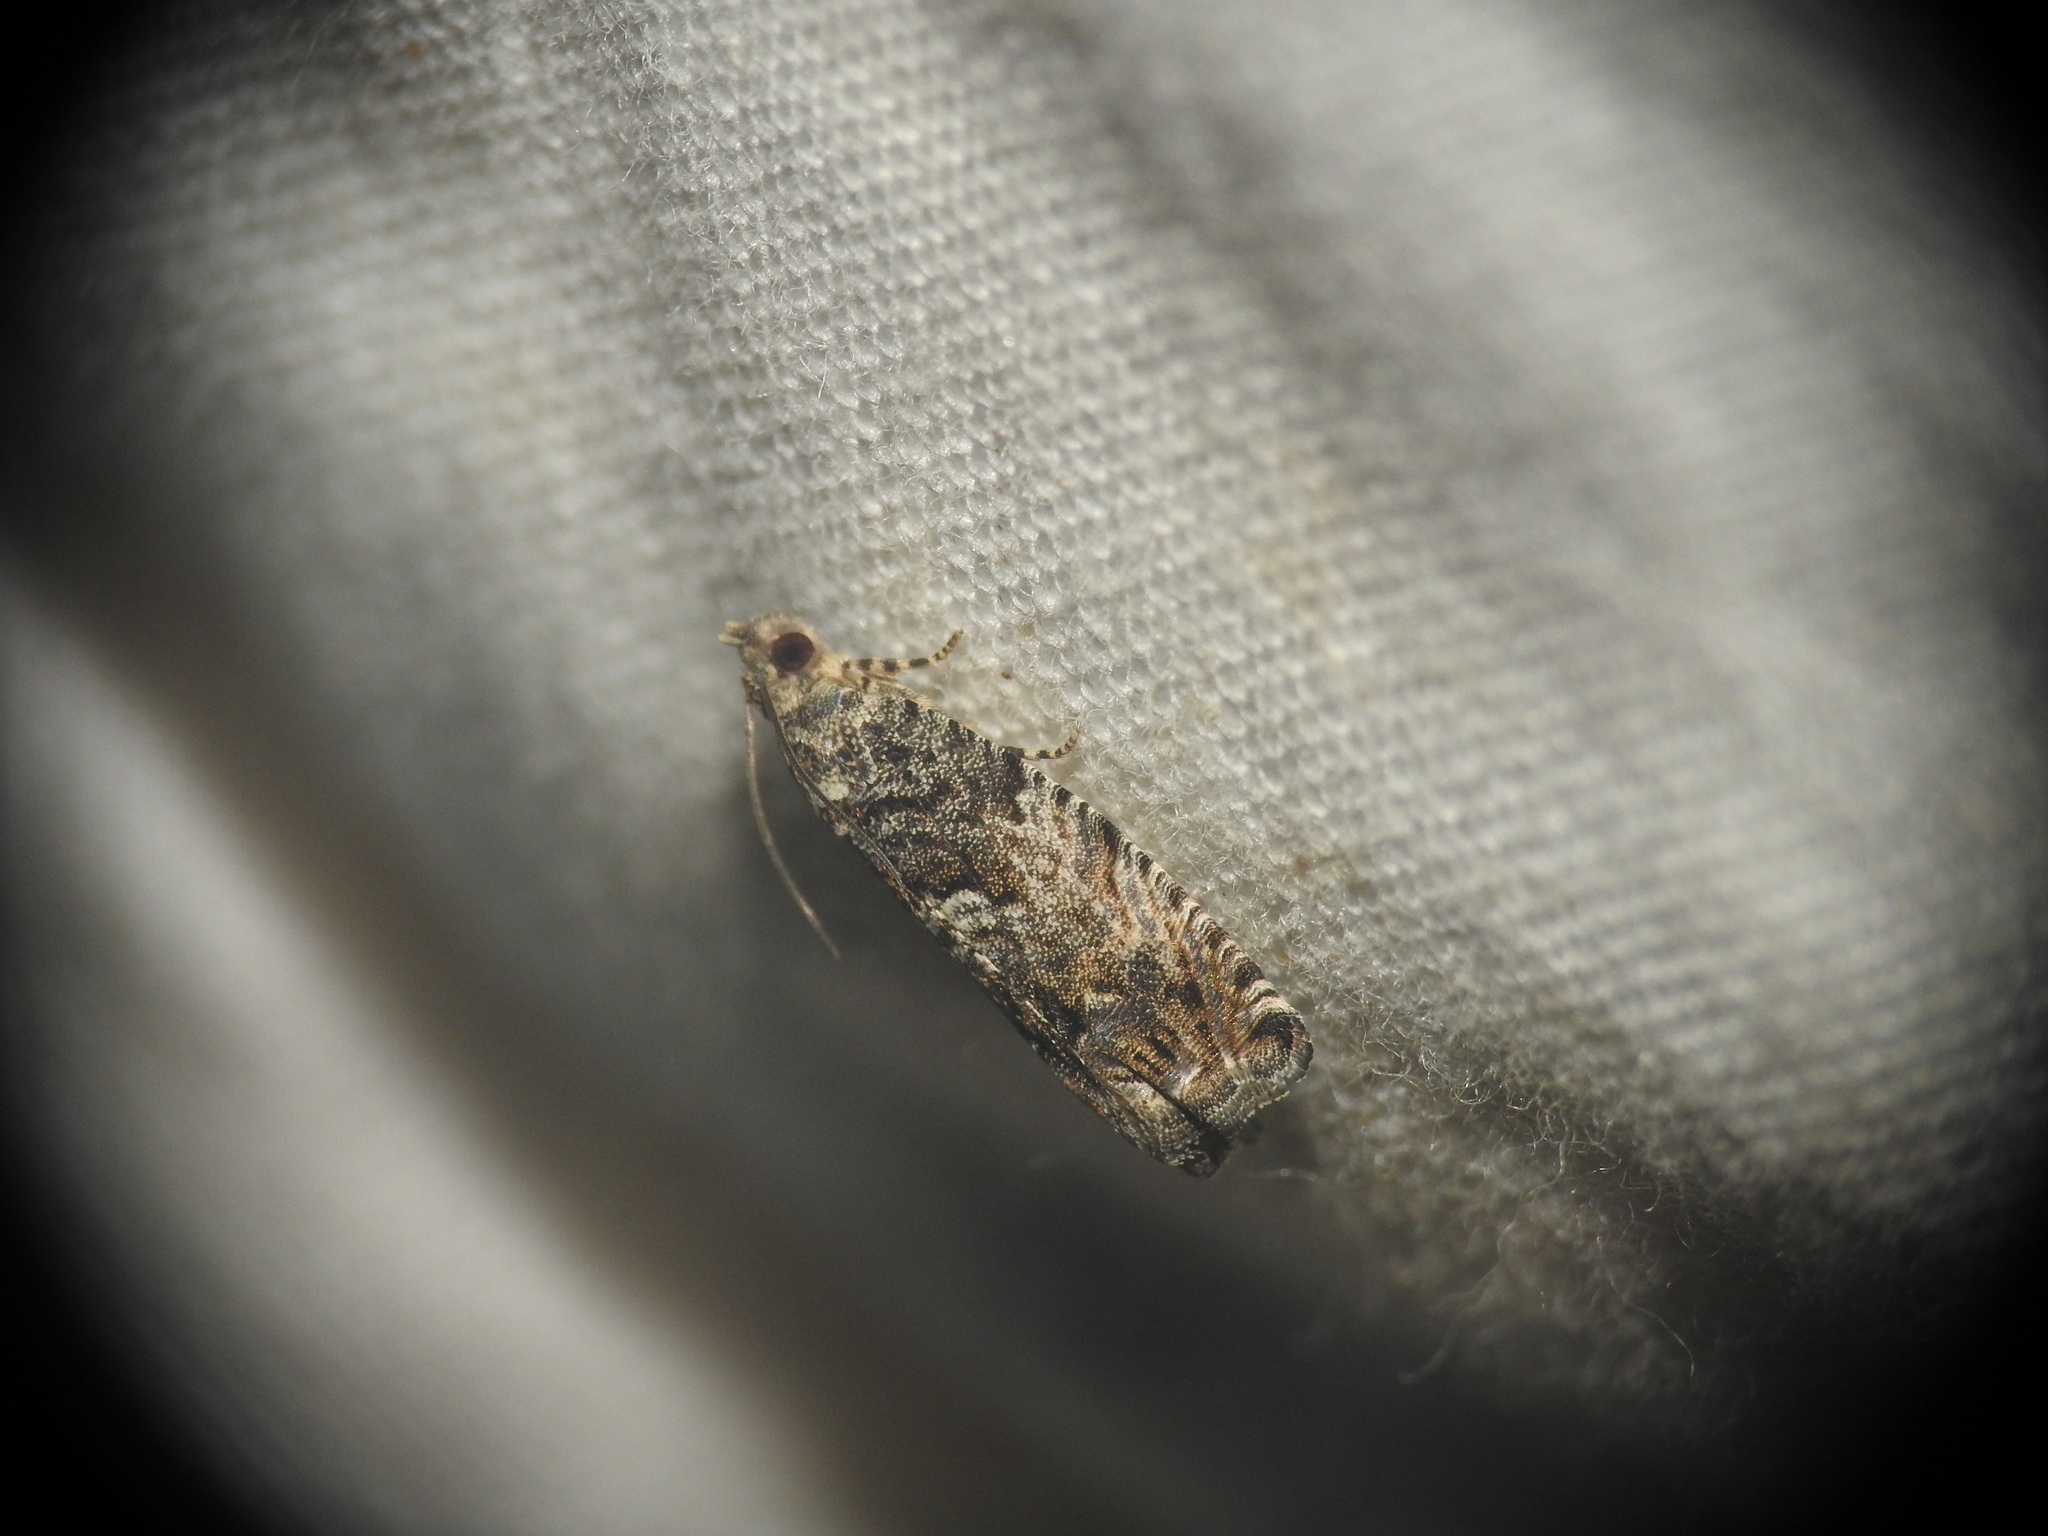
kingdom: Animalia
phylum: Arthropoda
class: Insecta
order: Lepidoptera
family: Tortricidae
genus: Cydia
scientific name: Cydia fagiglandana
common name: Large beech piercer
